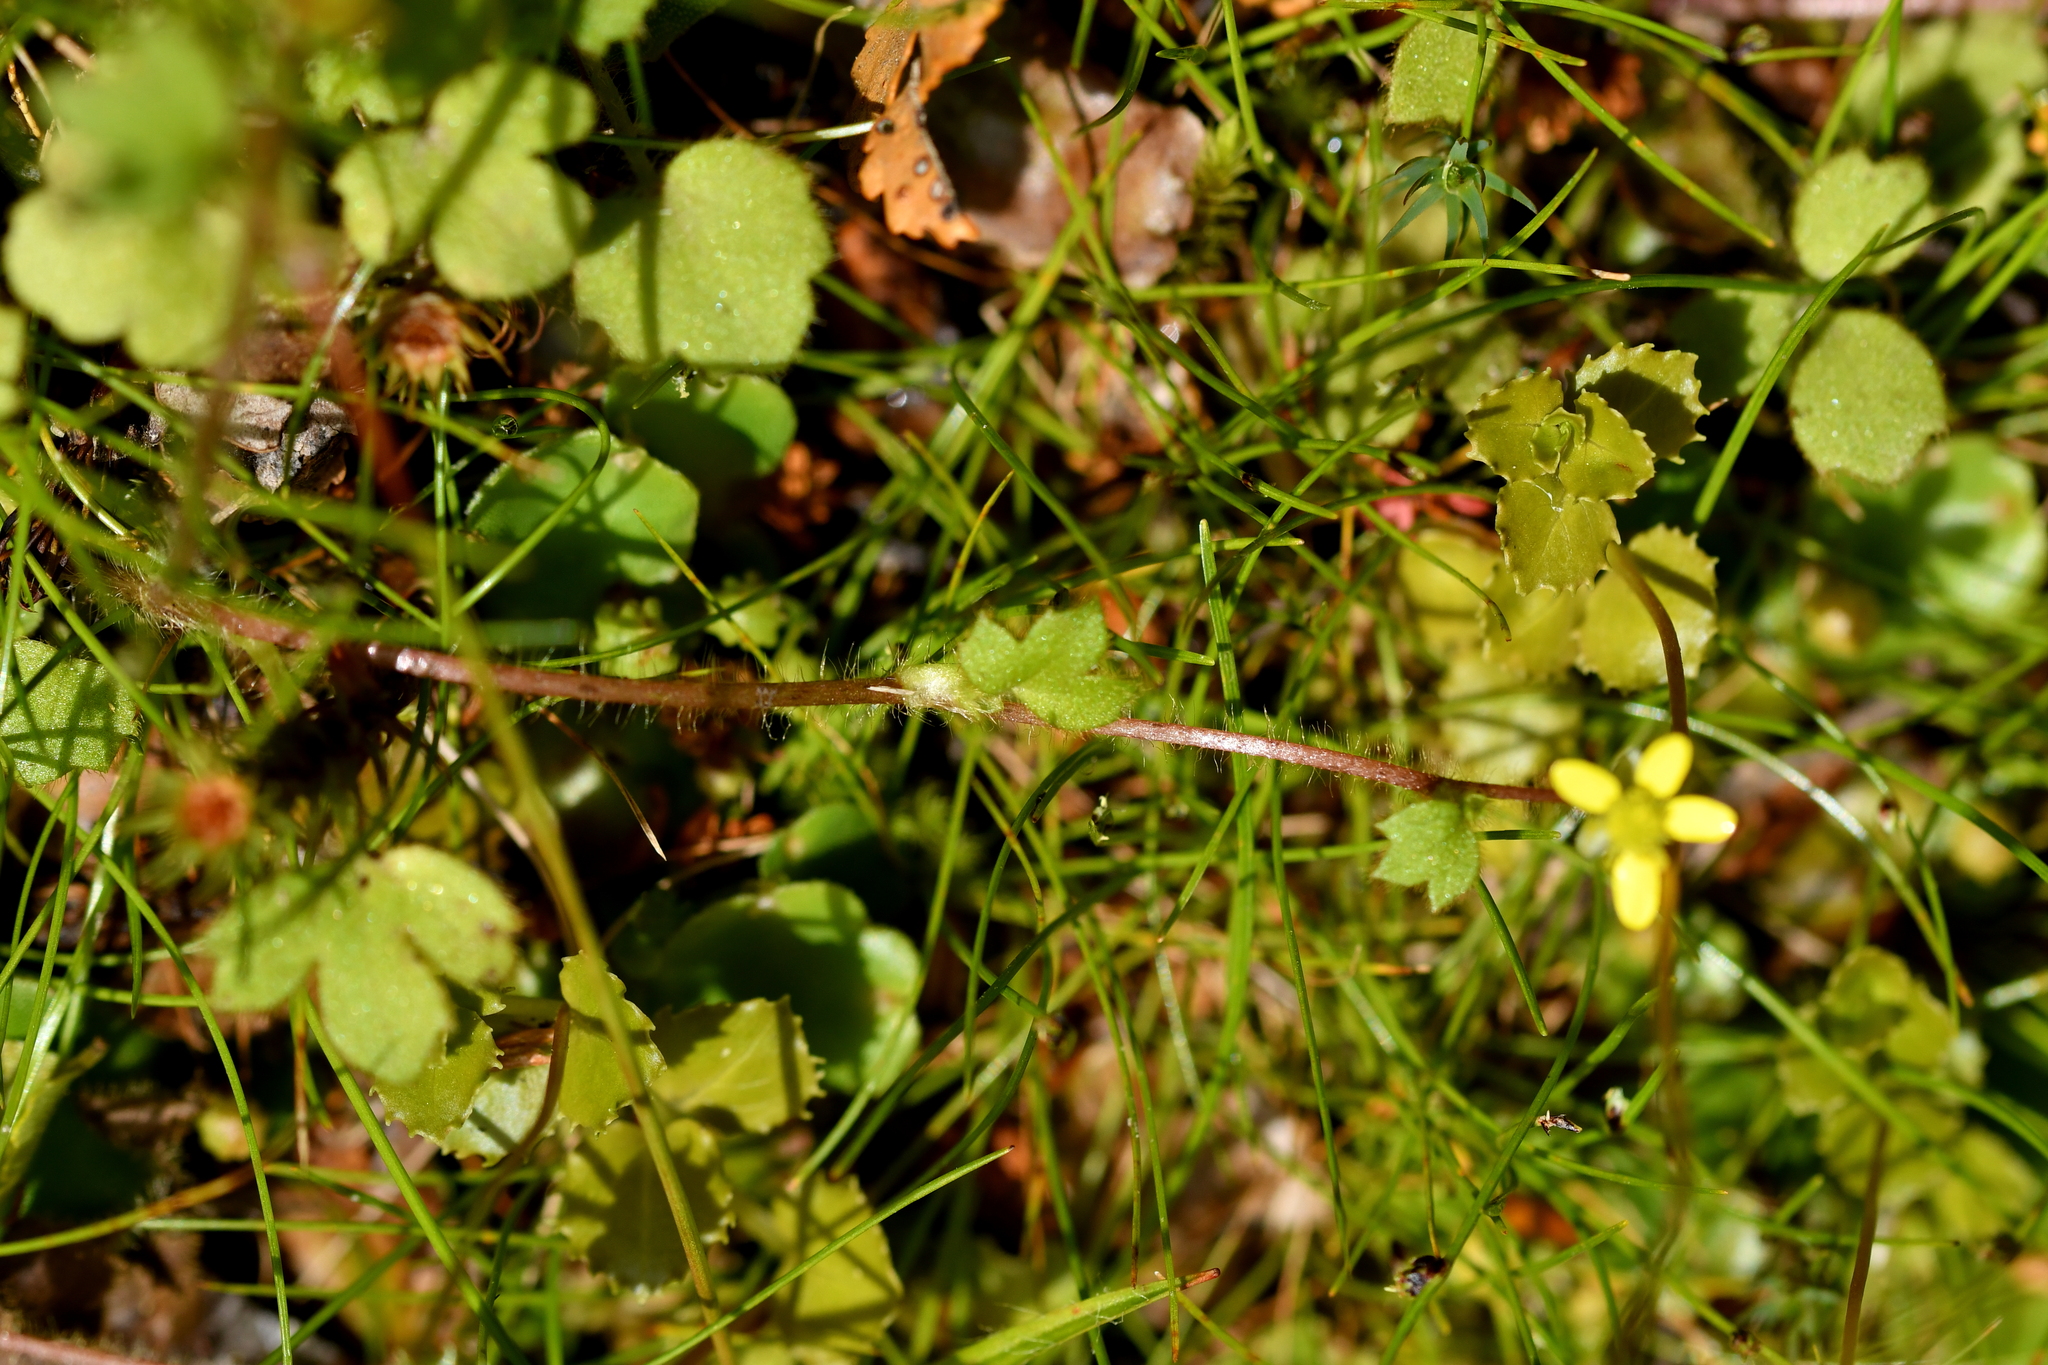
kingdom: Plantae
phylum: Tracheophyta
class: Magnoliopsida
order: Ranunculales
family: Ranunculaceae
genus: Ranunculus
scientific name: Ranunculus reflexus
